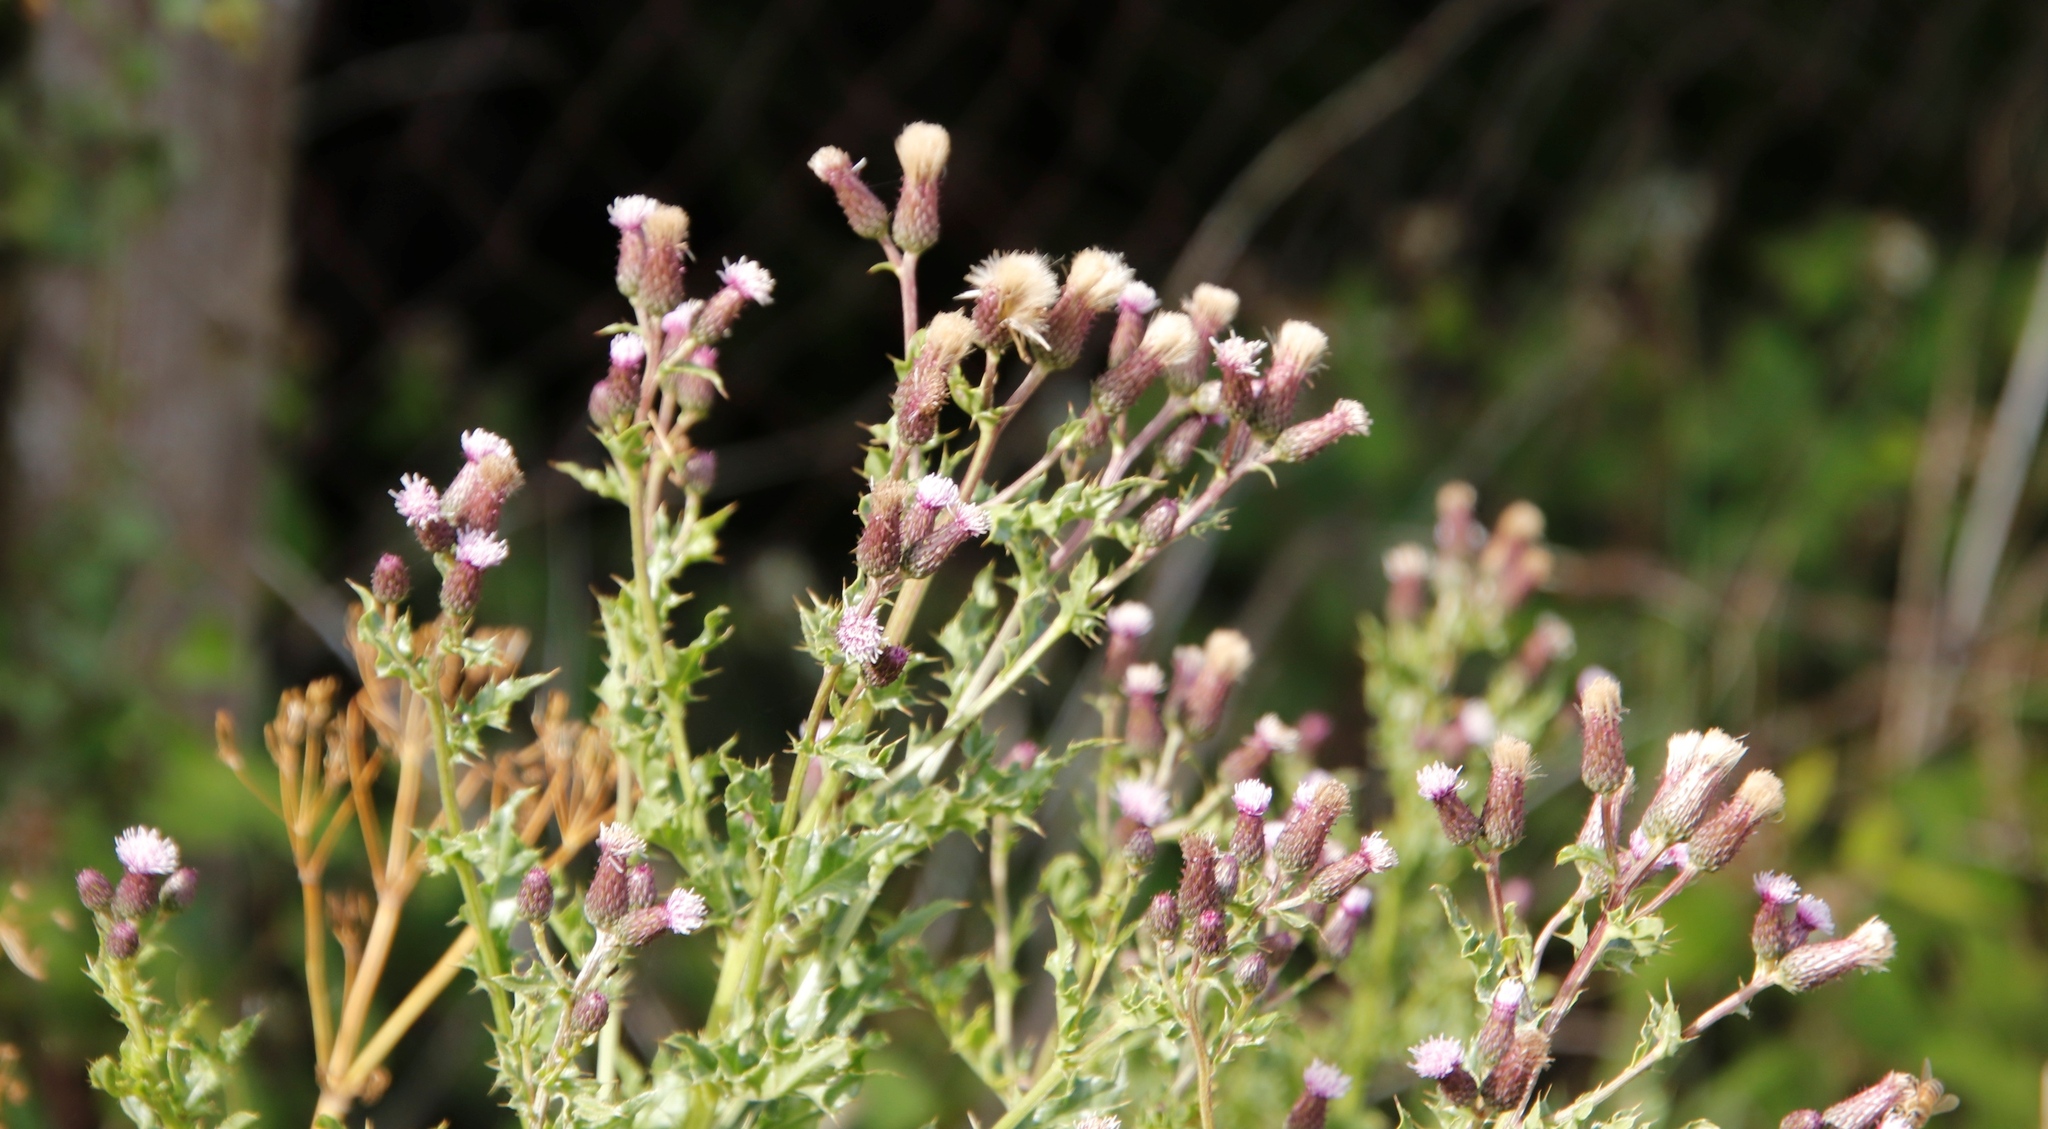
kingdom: Plantae
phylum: Tracheophyta
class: Magnoliopsida
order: Asterales
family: Asteraceae
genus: Cirsium
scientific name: Cirsium arvense
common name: Creeping thistle
